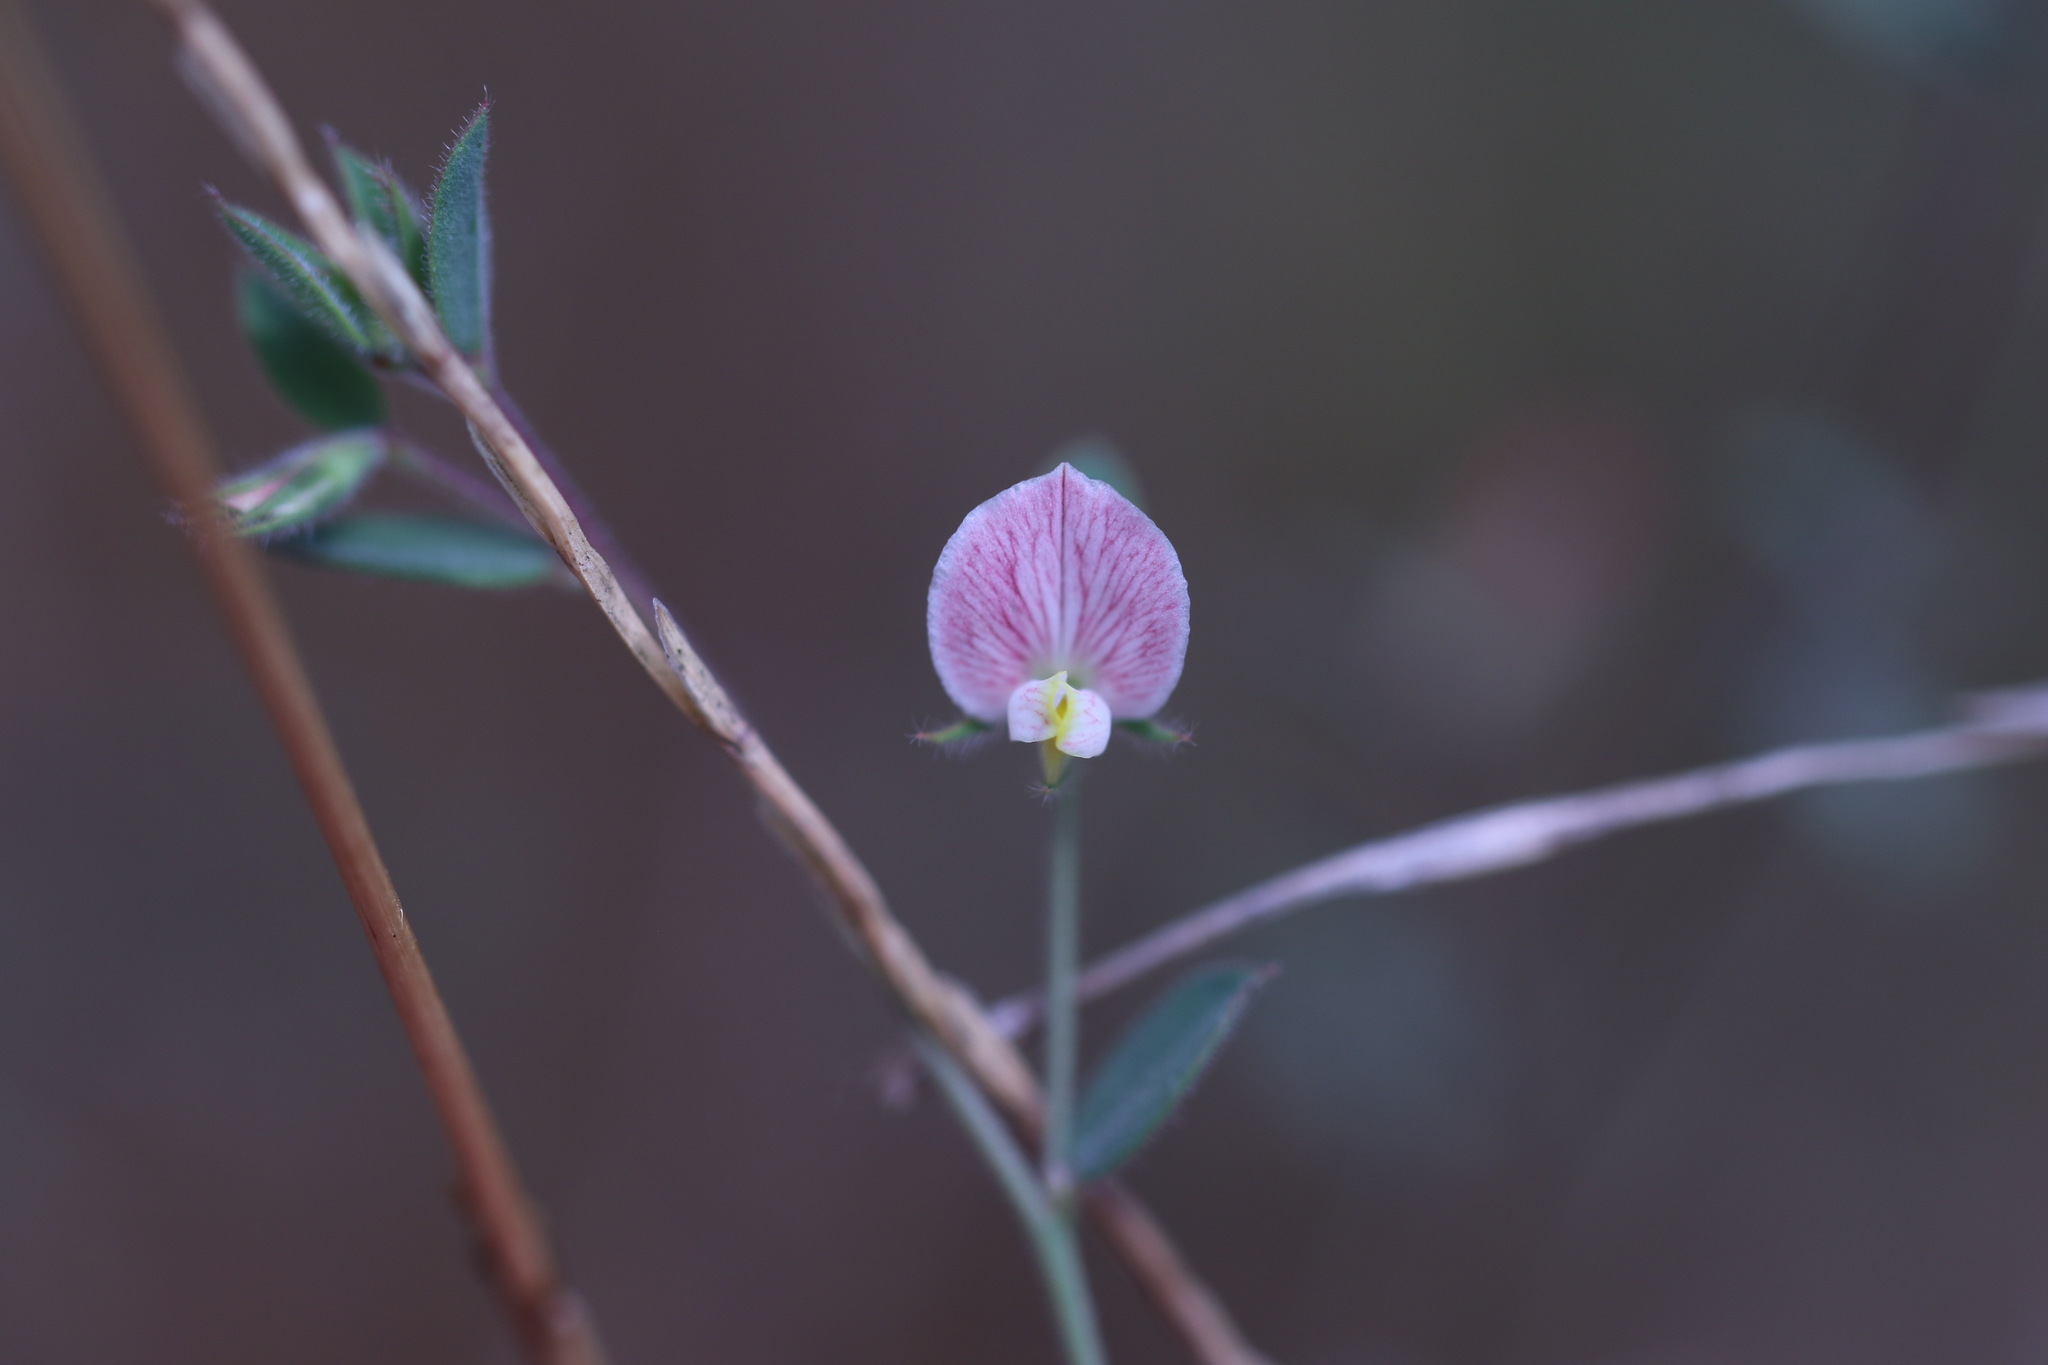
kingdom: Plantae
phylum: Tracheophyta
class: Magnoliopsida
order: Fabales
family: Fabaceae
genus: Acmispon
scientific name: Acmispon americanus
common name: American bird's-foot trefoil
